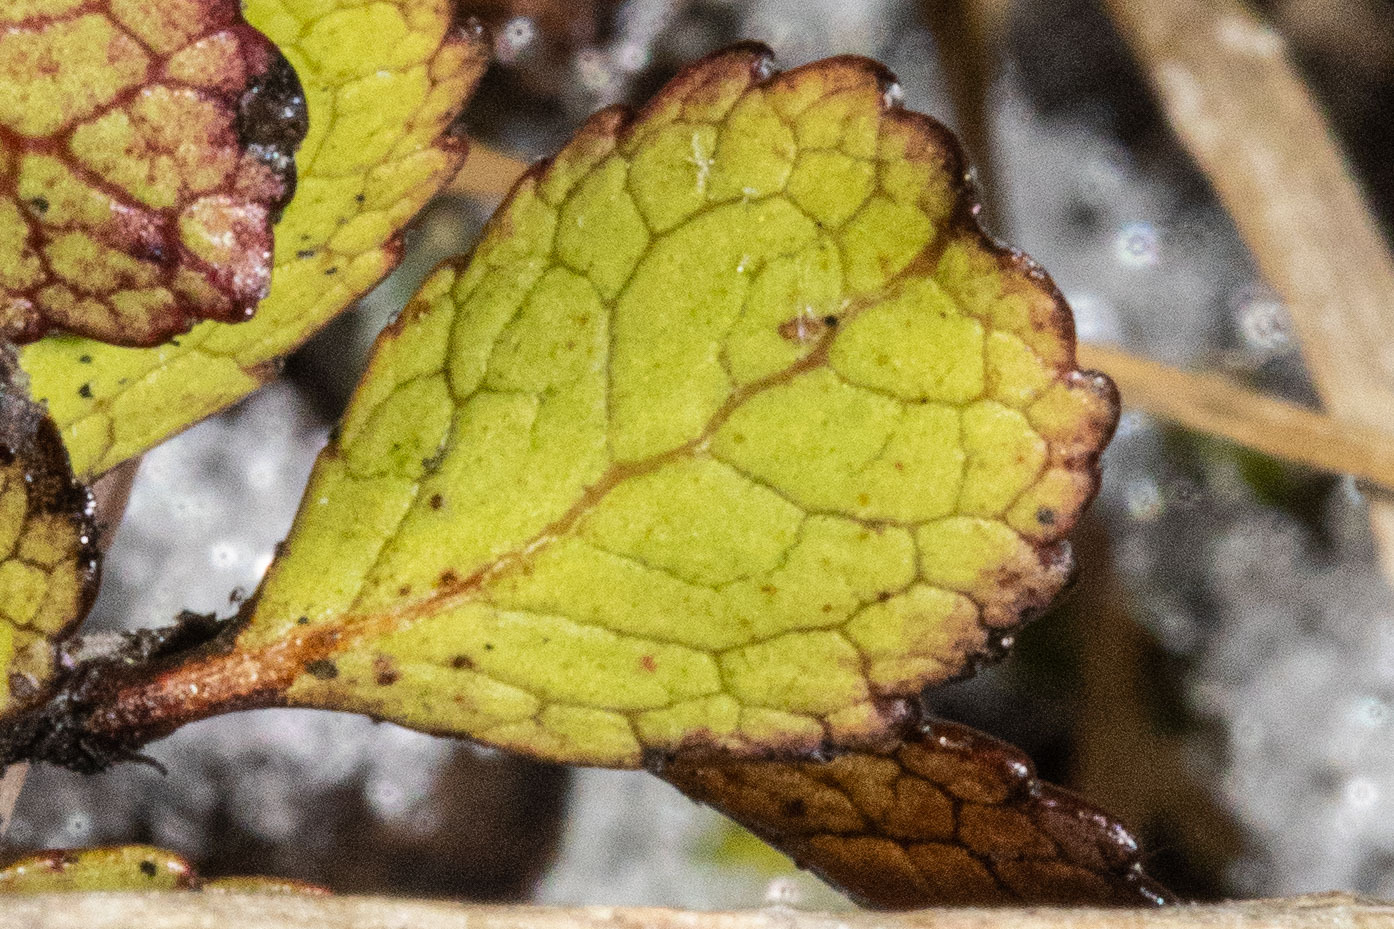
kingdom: Plantae
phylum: Tracheophyta
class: Magnoliopsida
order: Ericales
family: Ericaceae
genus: Gaultheria
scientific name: Gaultheria depressa
